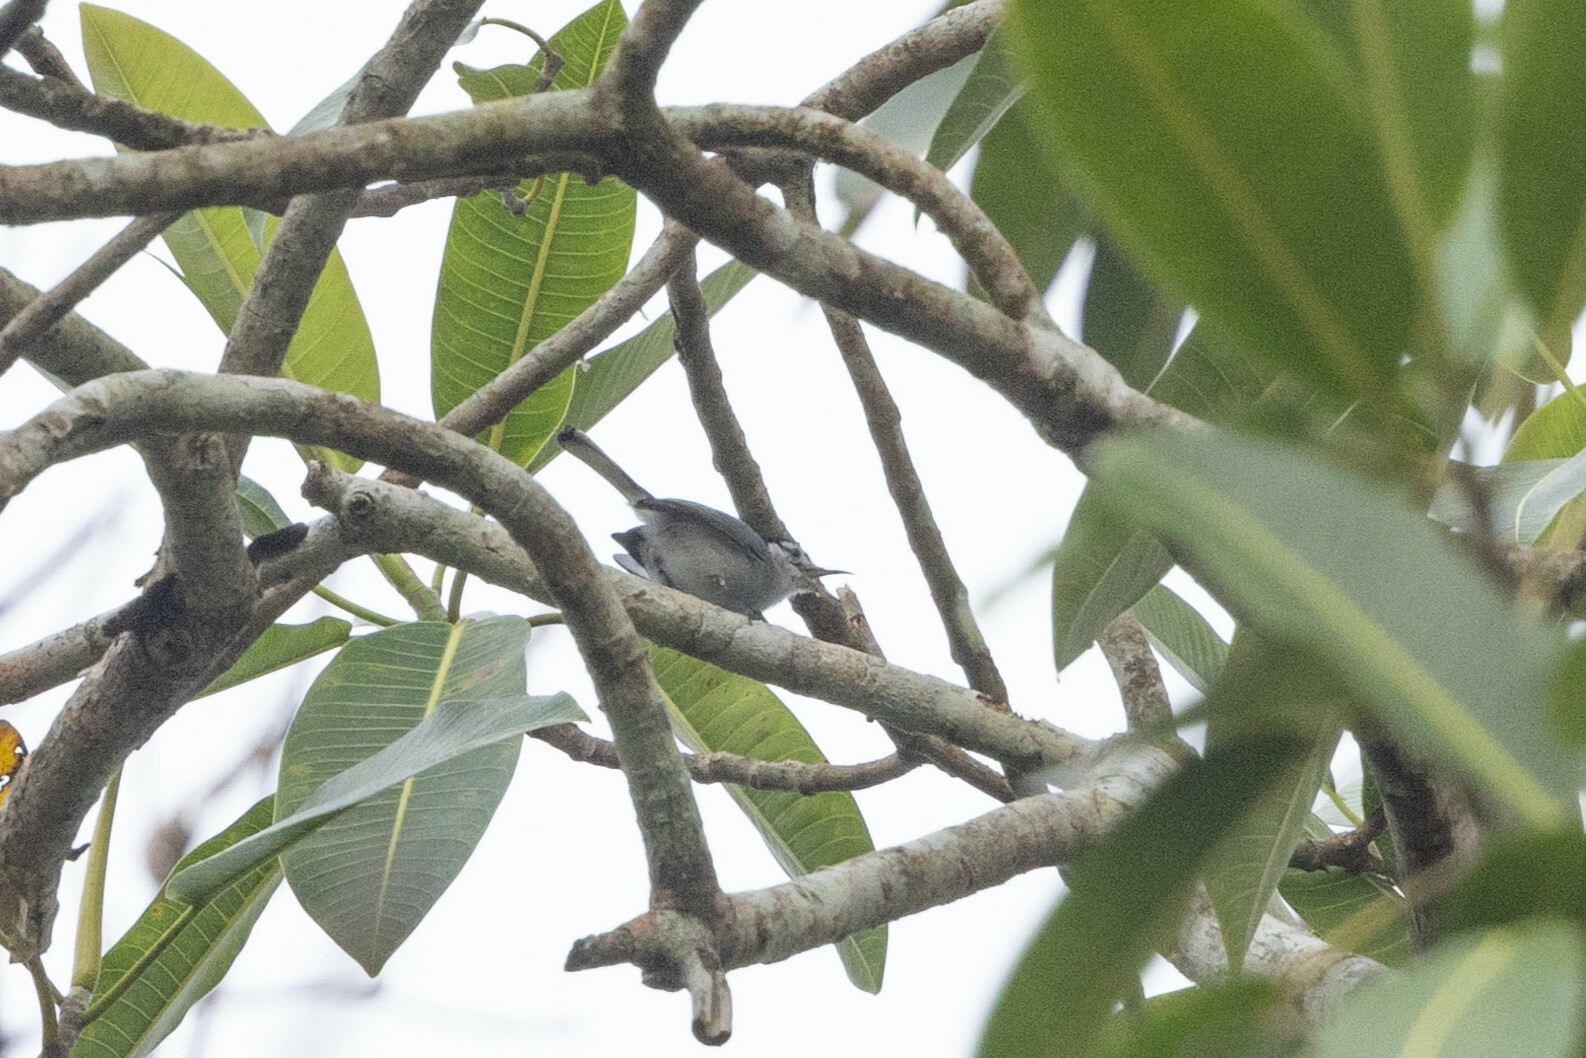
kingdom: Animalia
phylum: Chordata
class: Aves
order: Passeriformes
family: Polioptilidae
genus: Polioptila
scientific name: Polioptila plumbea
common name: Tropical gnatcatcher
